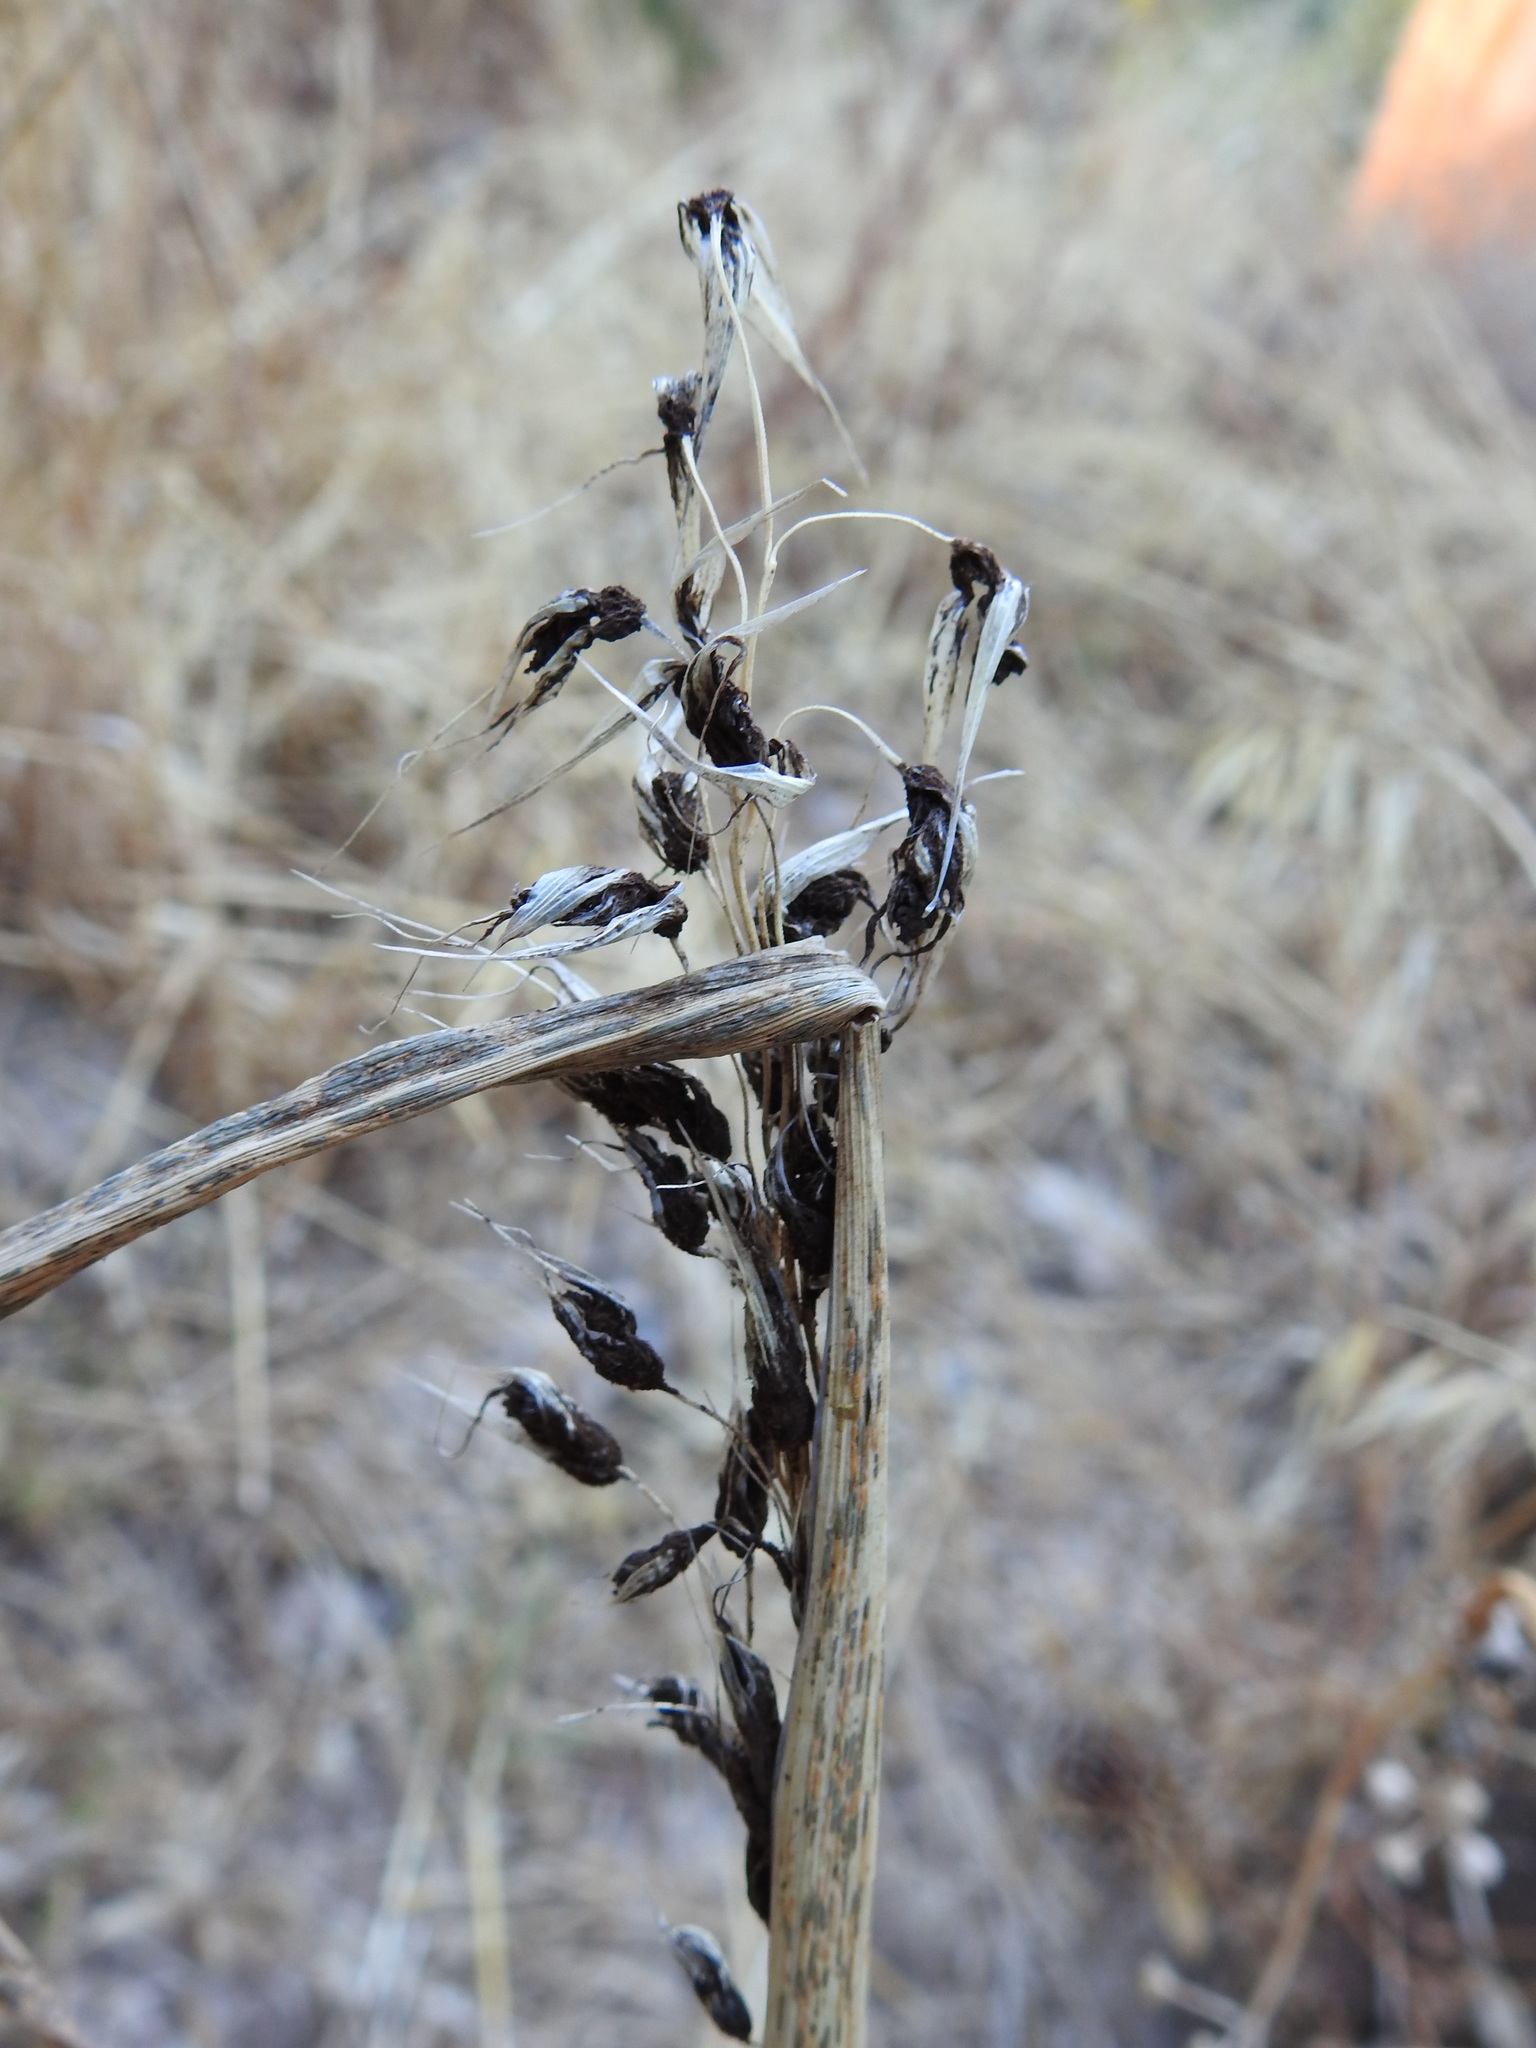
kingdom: Fungi
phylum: Basidiomycota
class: Ustilaginomycetes
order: Ustilaginales
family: Ustilaginaceae
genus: Ustilago
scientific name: Ustilago avenae
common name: Loose smut of oats & oat grass
